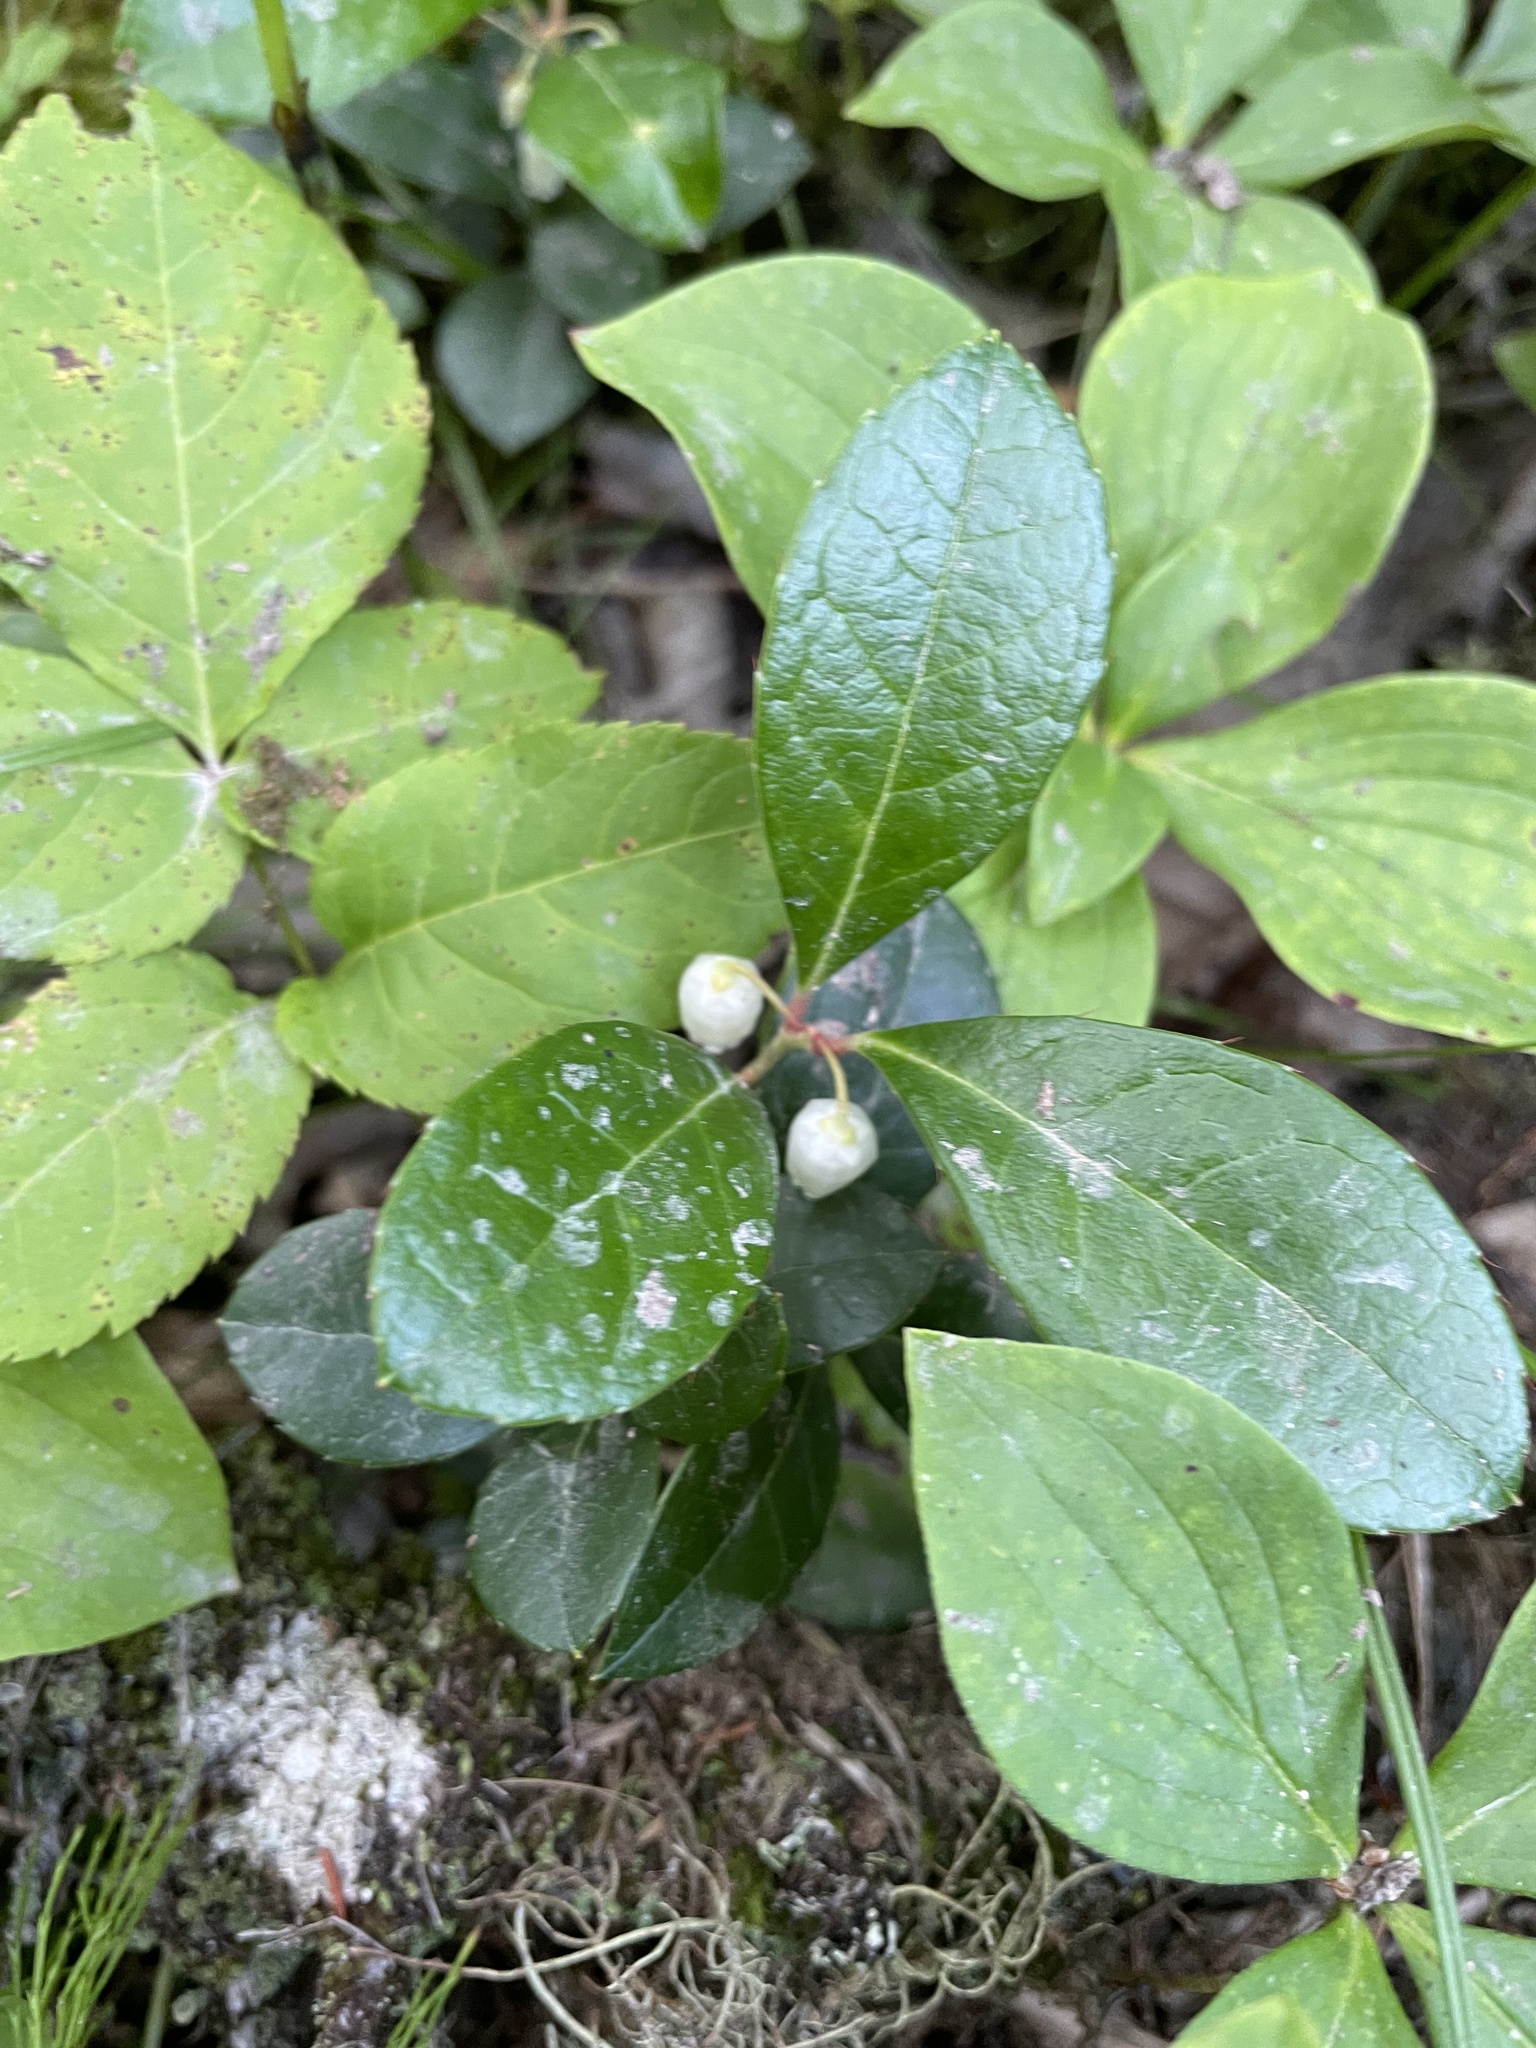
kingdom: Plantae
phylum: Tracheophyta
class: Magnoliopsida
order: Ericales
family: Ericaceae
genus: Gaultheria
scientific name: Gaultheria procumbens
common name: Checkerberry
